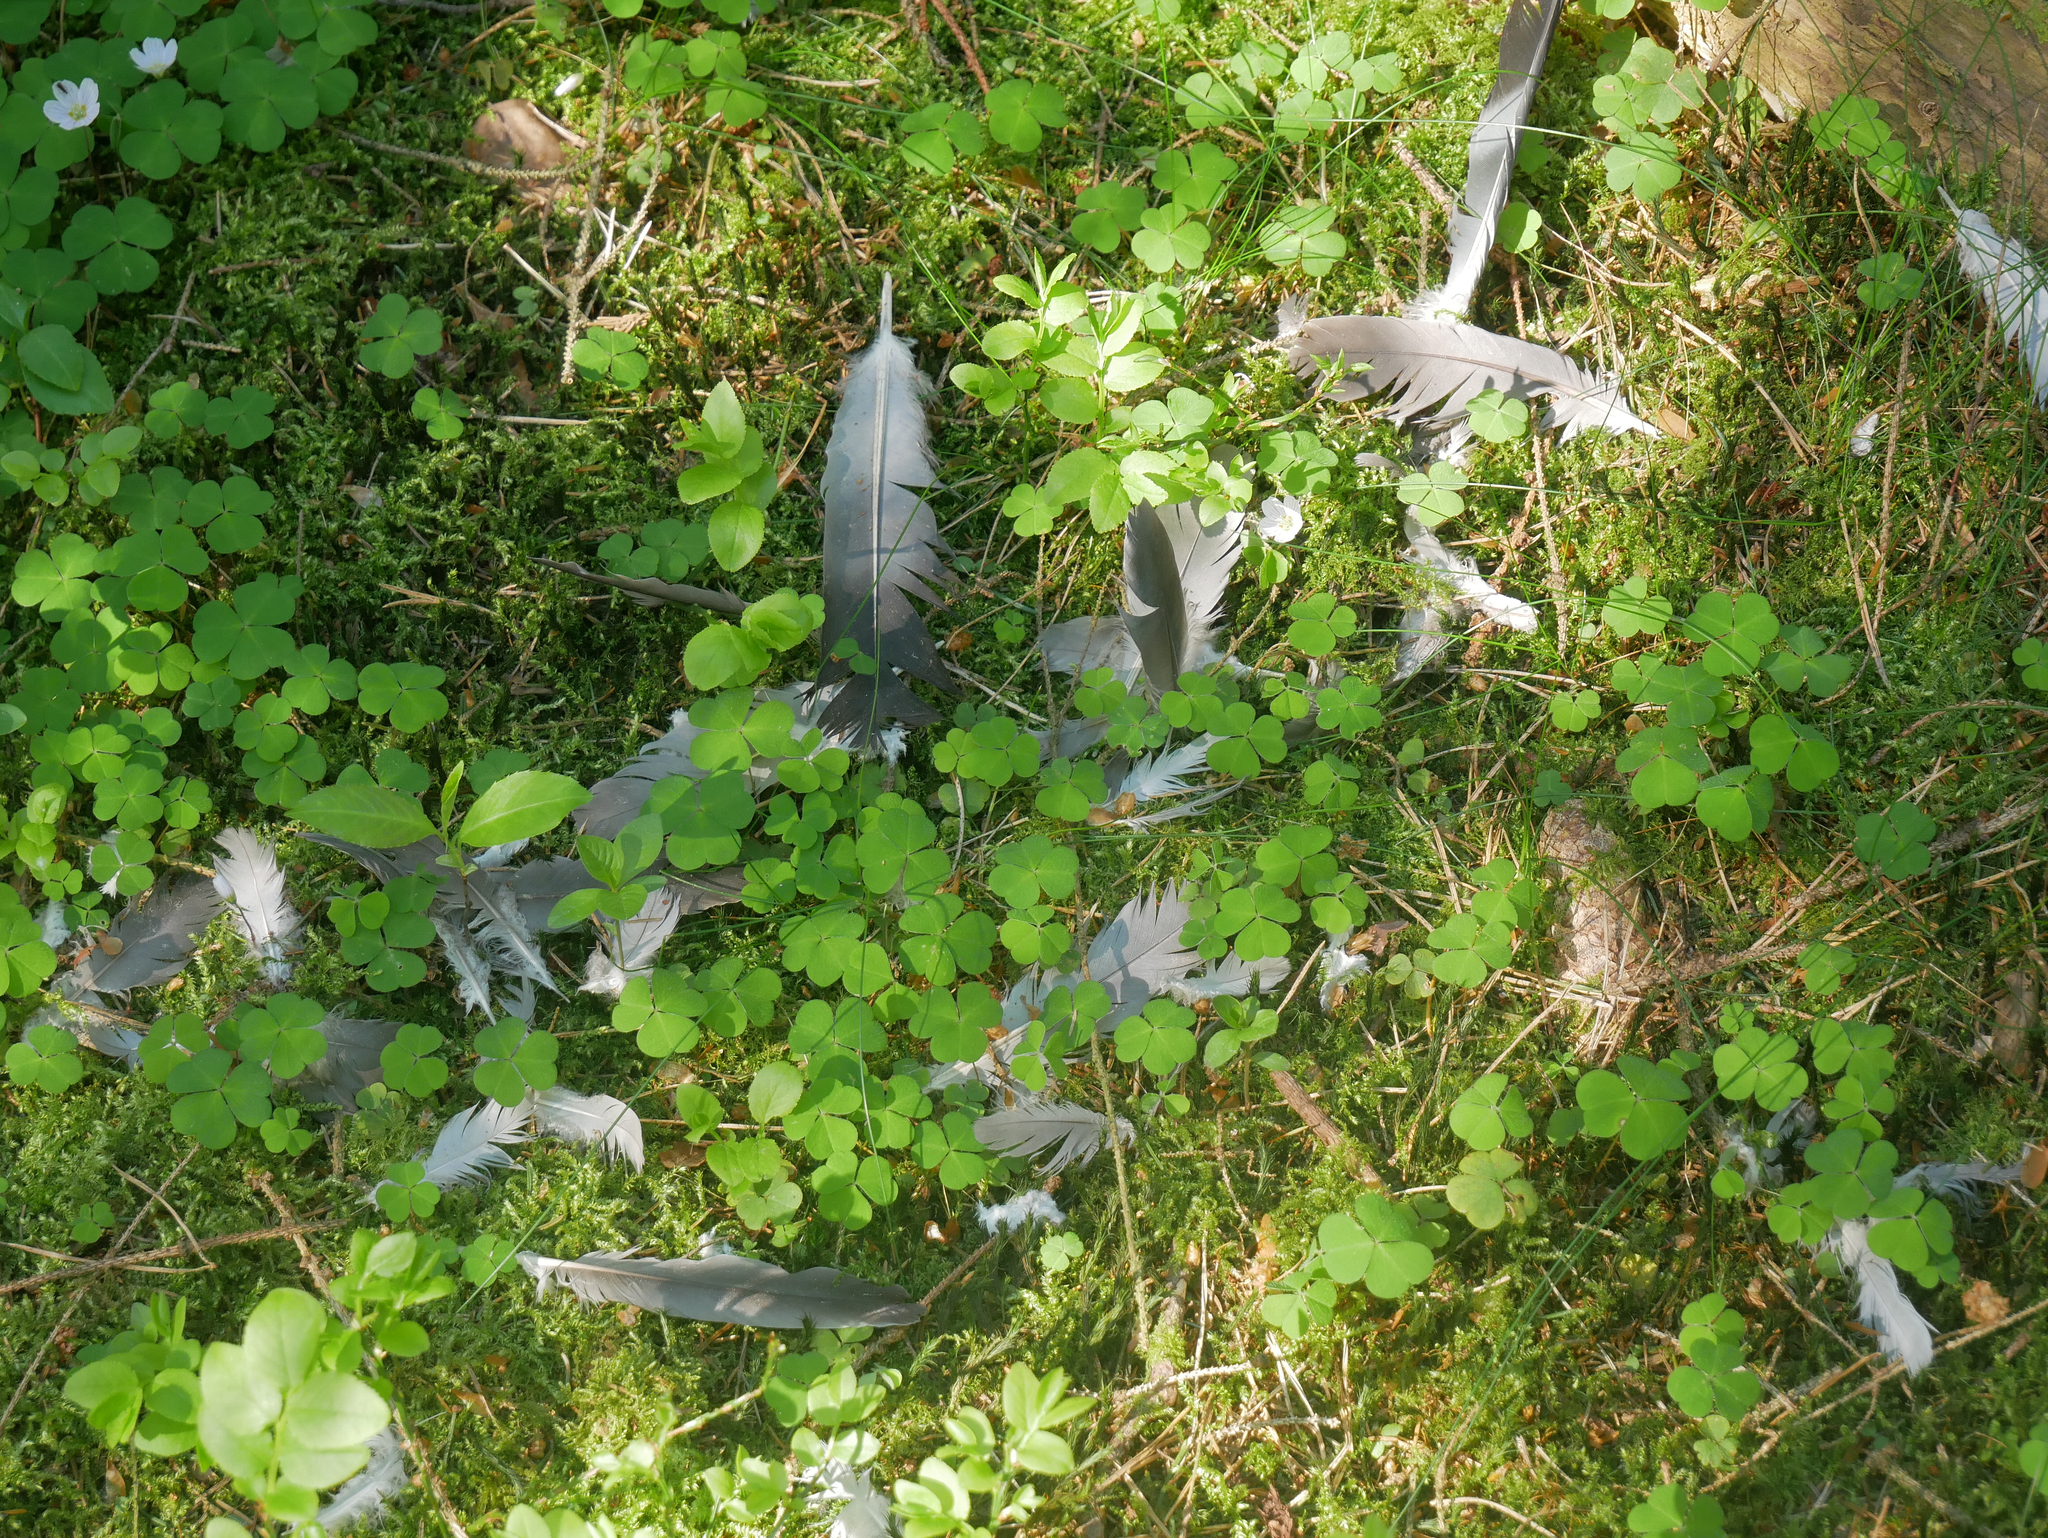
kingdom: Animalia
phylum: Chordata
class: Aves
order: Columbiformes
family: Columbidae
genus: Columba
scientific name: Columba palumbus
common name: Common wood pigeon
